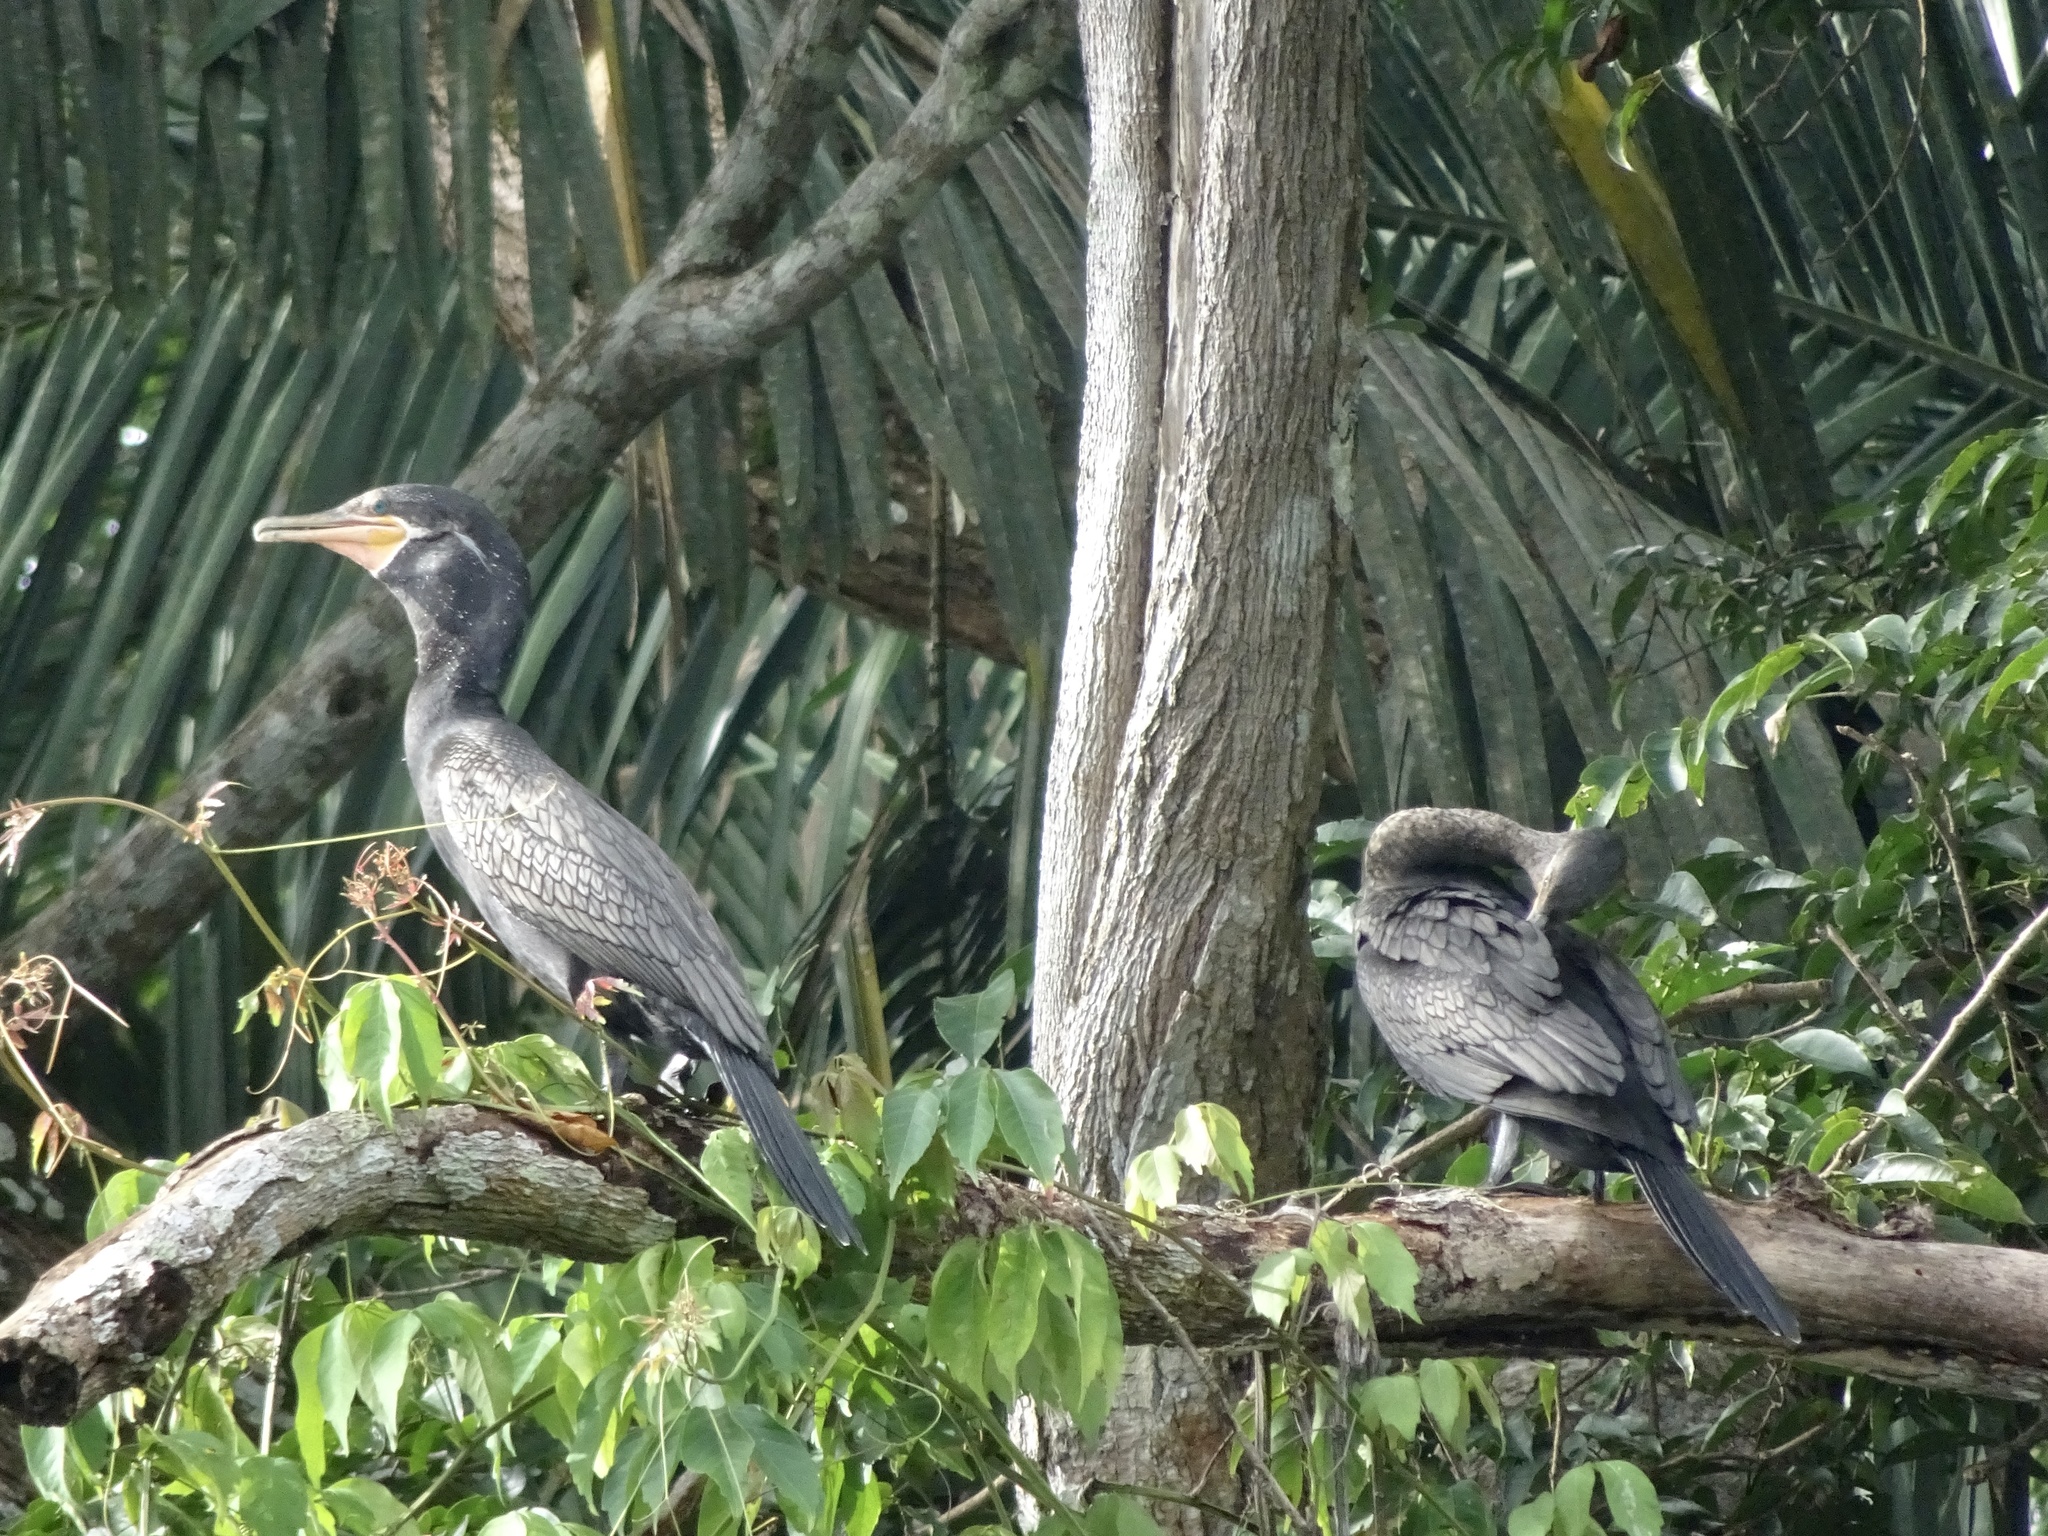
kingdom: Animalia
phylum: Chordata
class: Aves
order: Suliformes
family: Phalacrocoracidae
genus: Phalacrocorax
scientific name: Phalacrocorax brasilianus
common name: Neotropic cormorant
